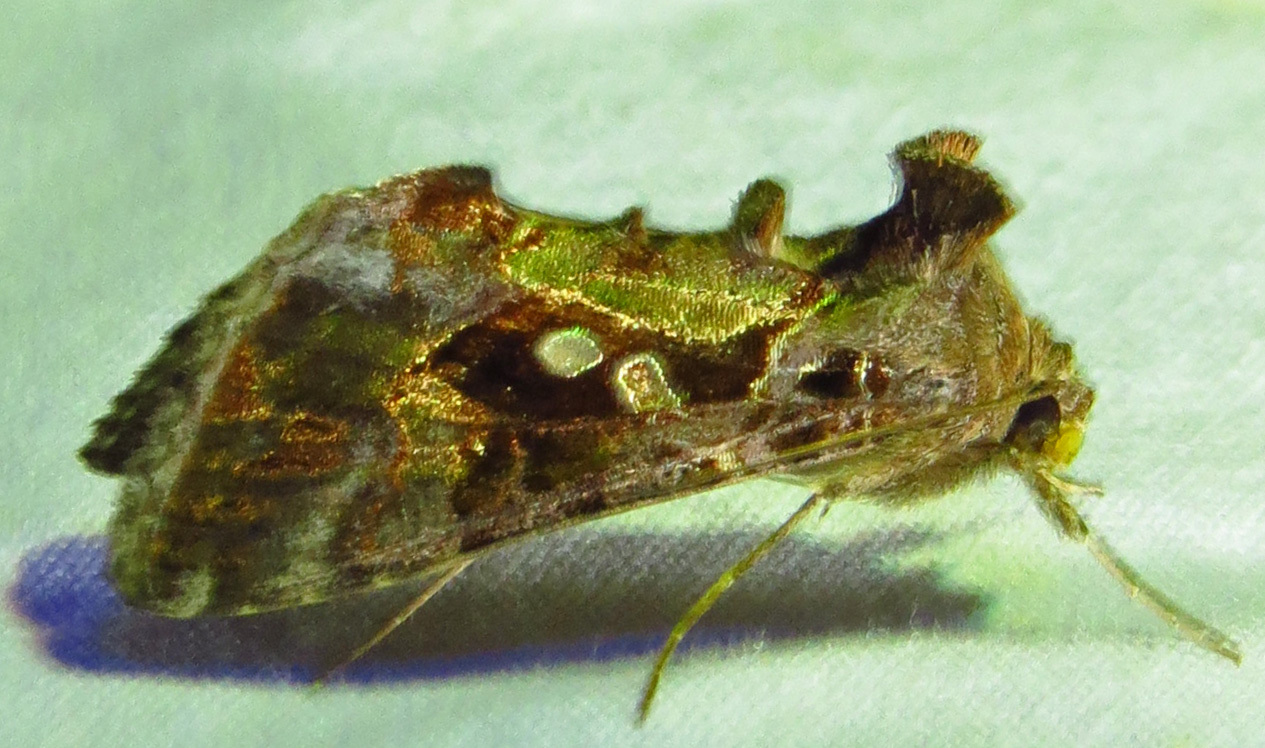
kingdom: Animalia
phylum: Arthropoda
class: Insecta
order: Lepidoptera
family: Noctuidae
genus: Chrysodeixis
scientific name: Chrysodeixis includens
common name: Cutworm moth
